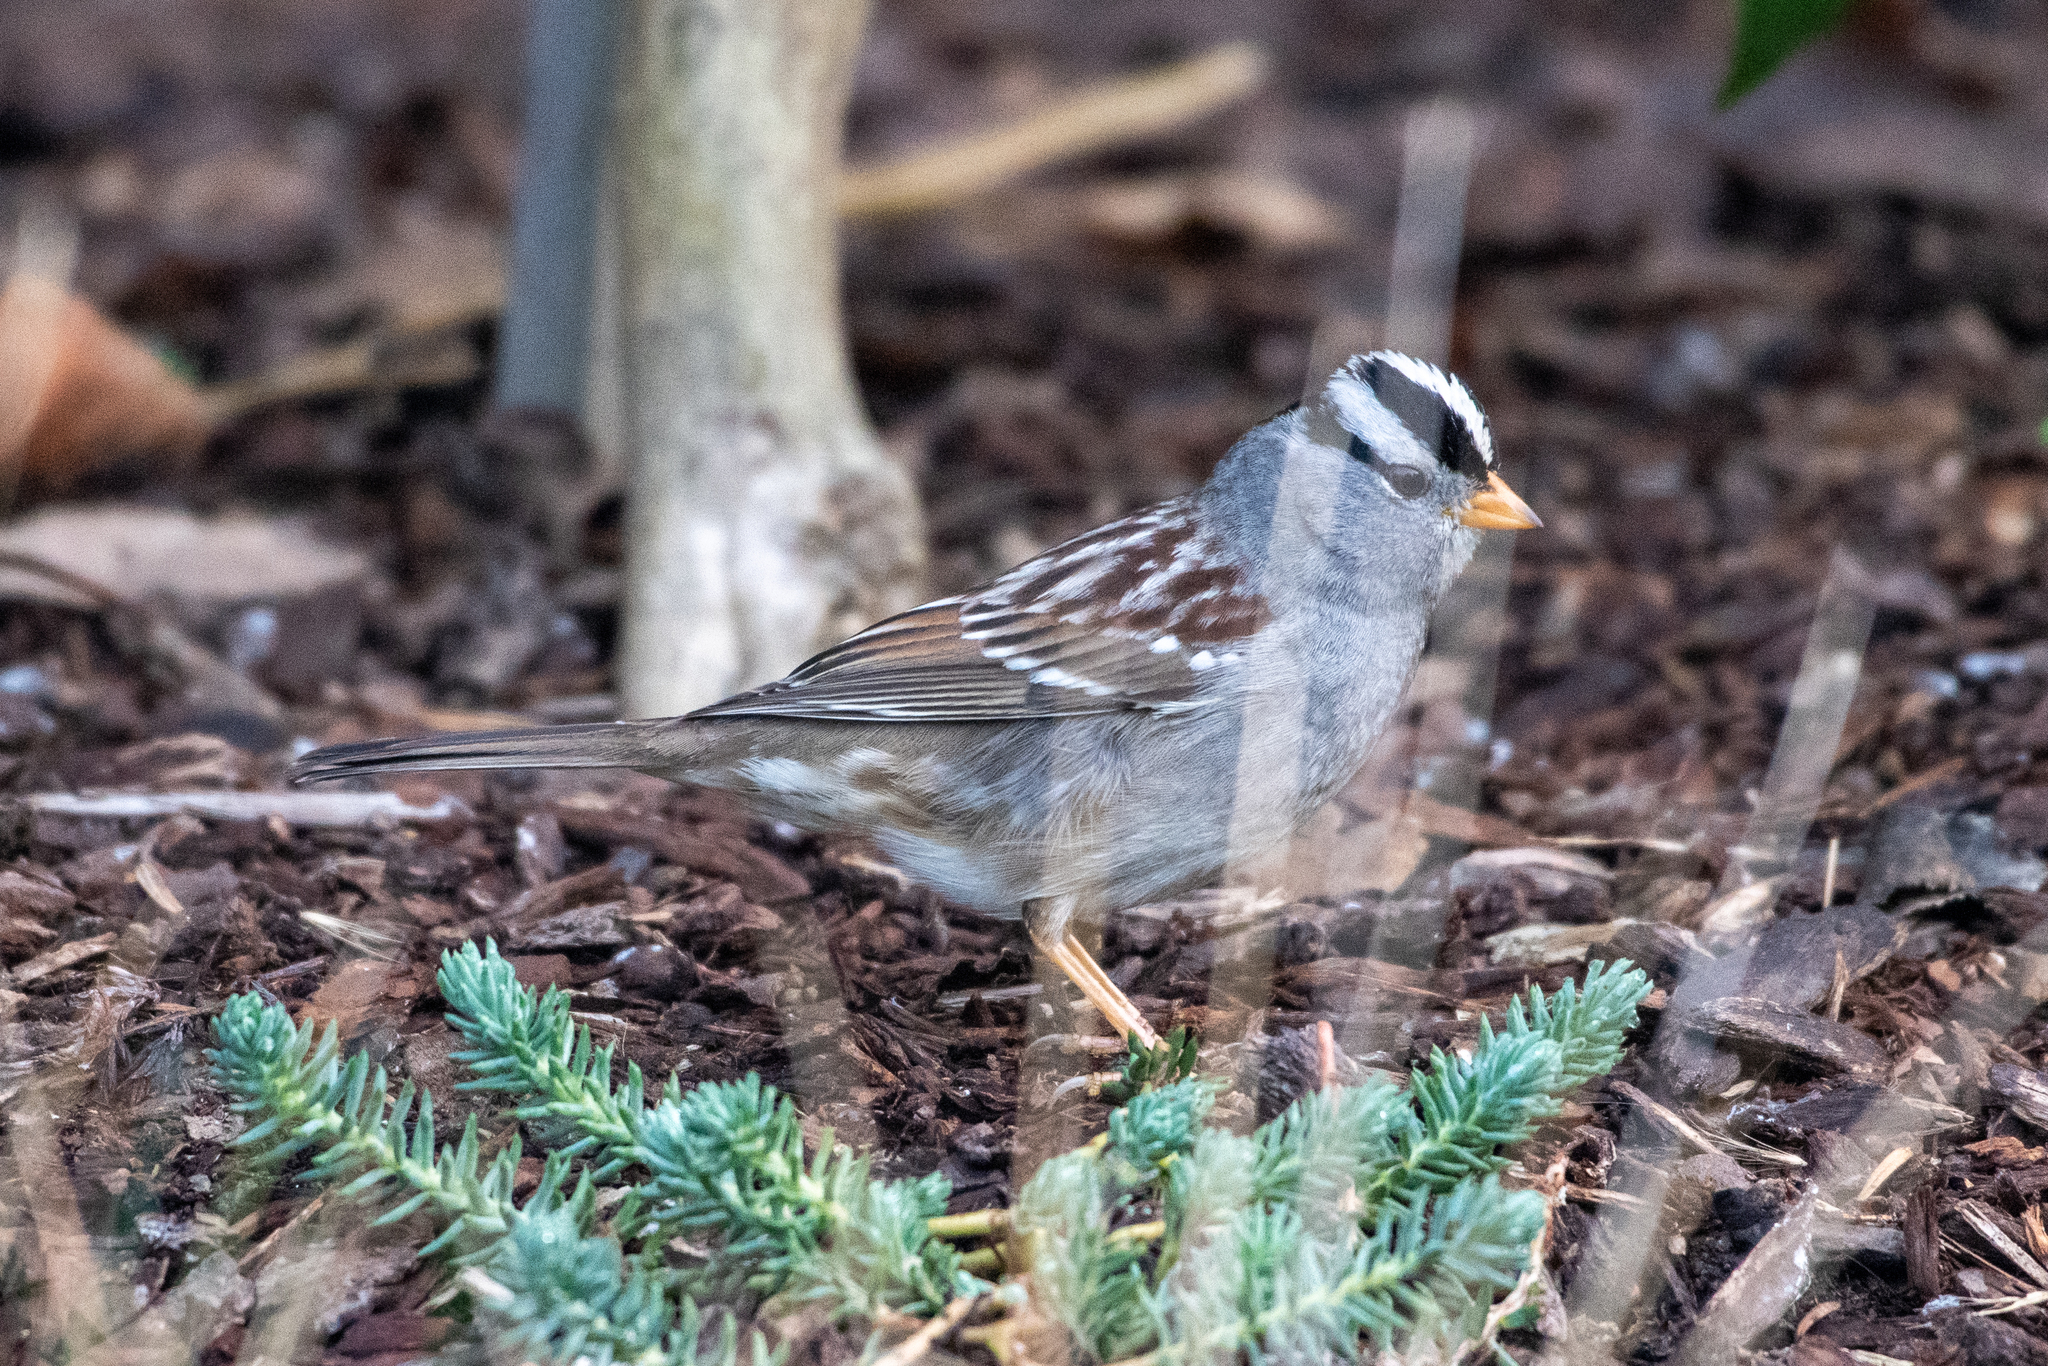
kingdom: Animalia
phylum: Chordata
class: Aves
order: Passeriformes
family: Passerellidae
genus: Zonotrichia
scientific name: Zonotrichia leucophrys
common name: White-crowned sparrow
